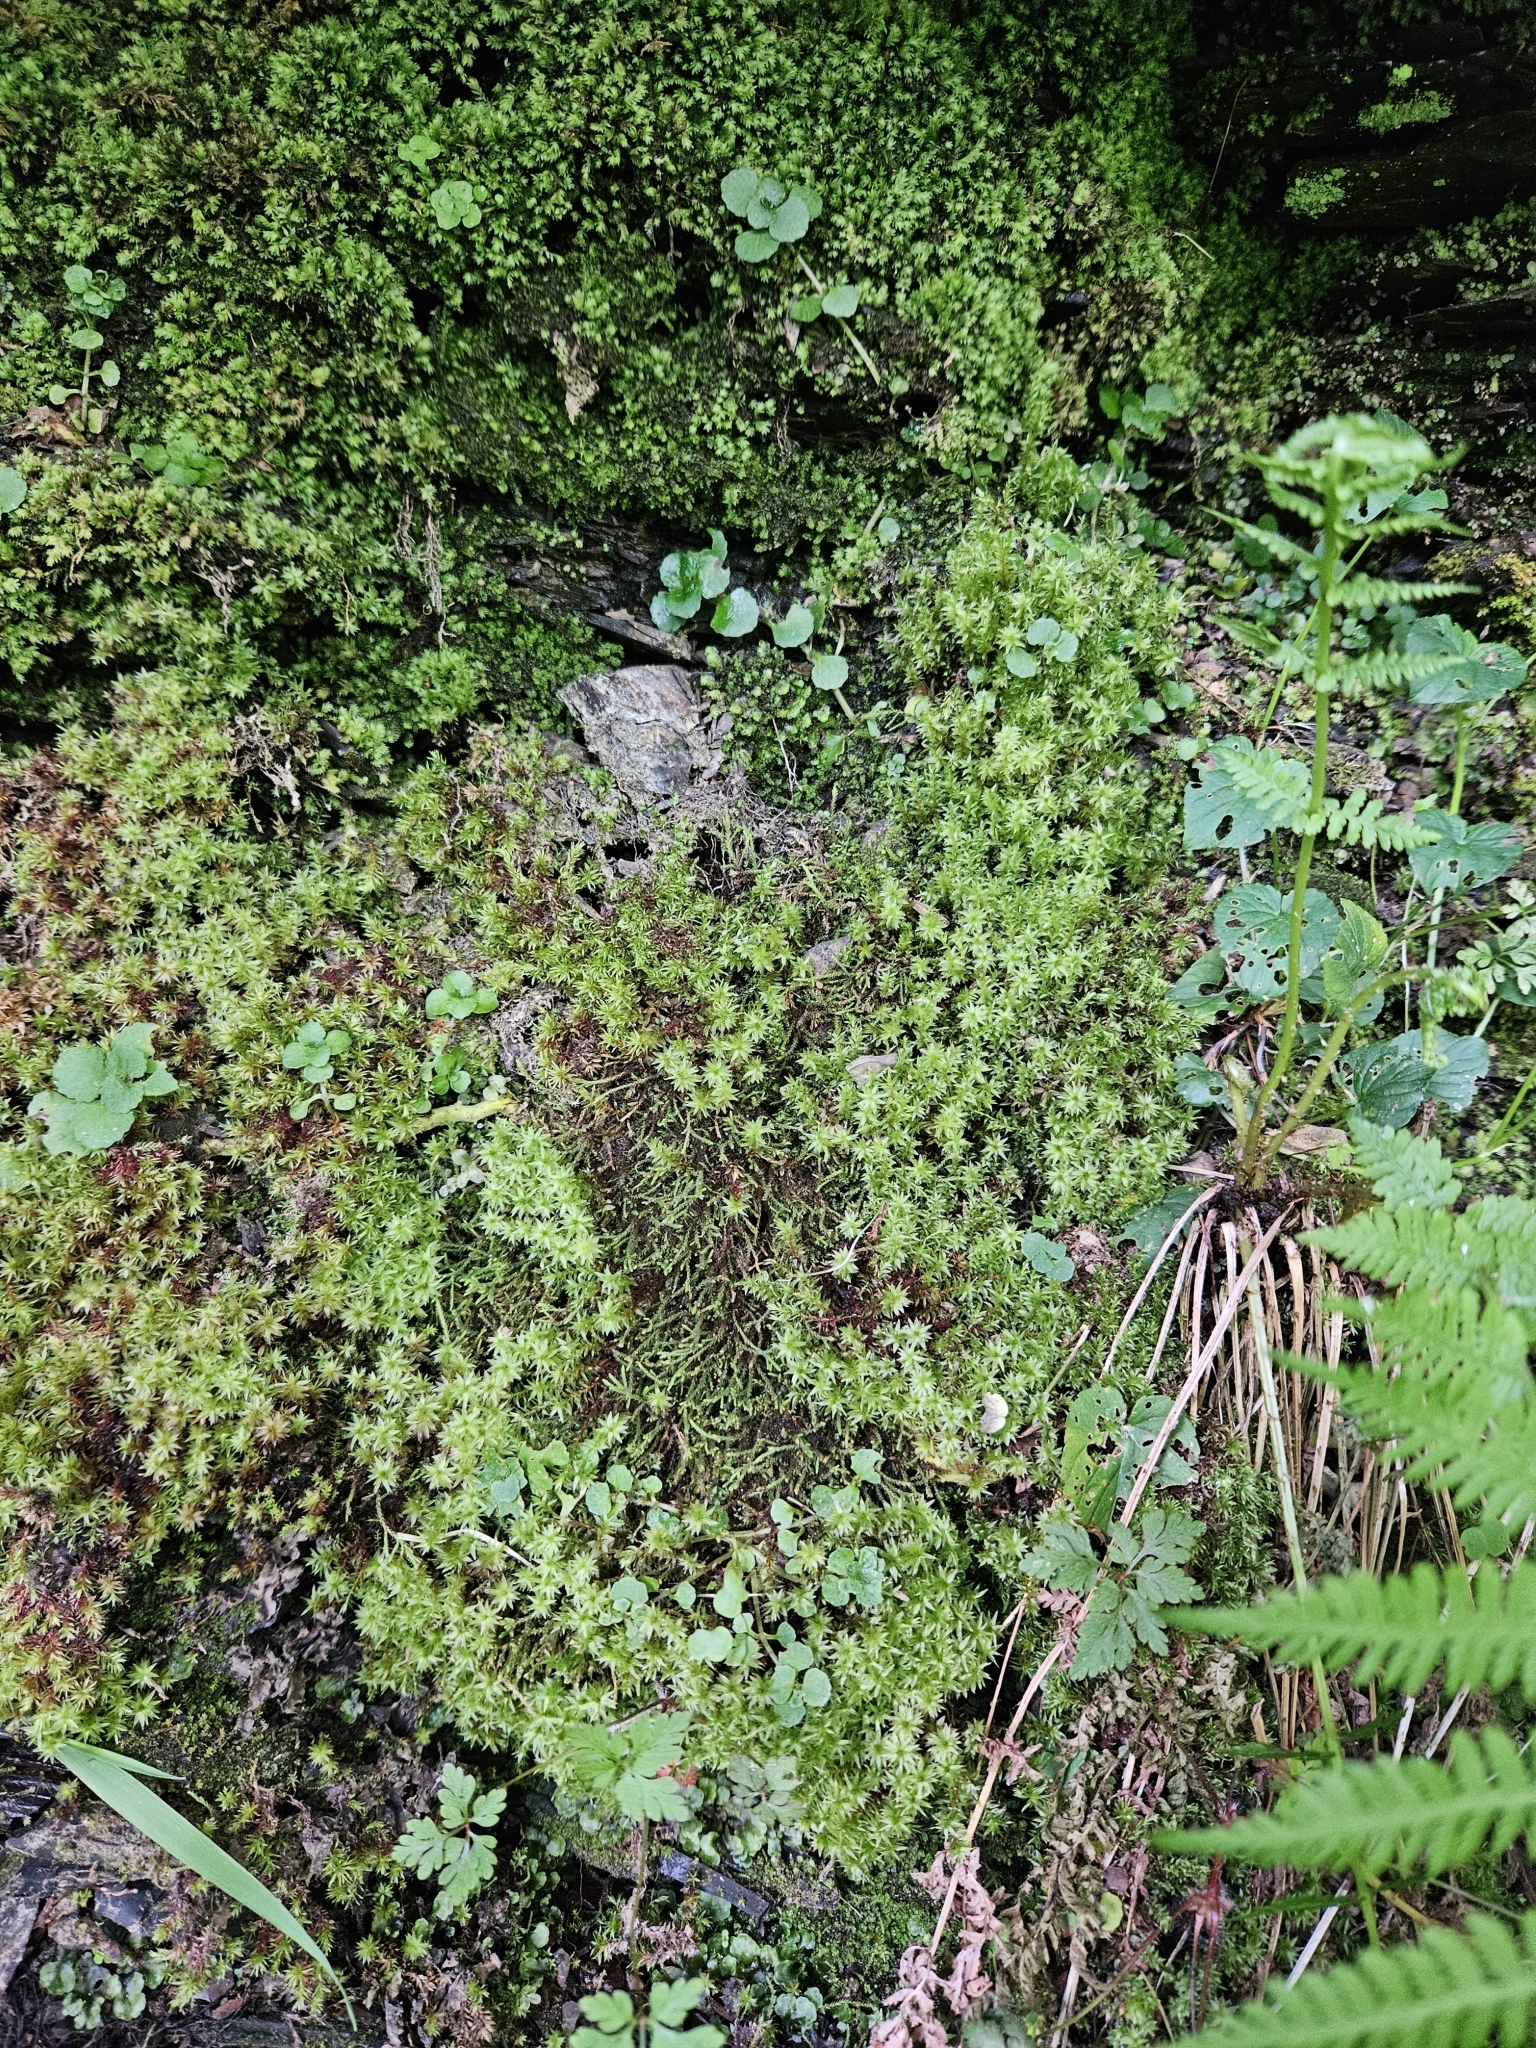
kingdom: Plantae
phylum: Bryophyta
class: Bryopsida
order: Bryales
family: Bryaceae
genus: Ptychostomum
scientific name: Ptychostomum pseudotriquetrum
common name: Long-leaved thread moss
